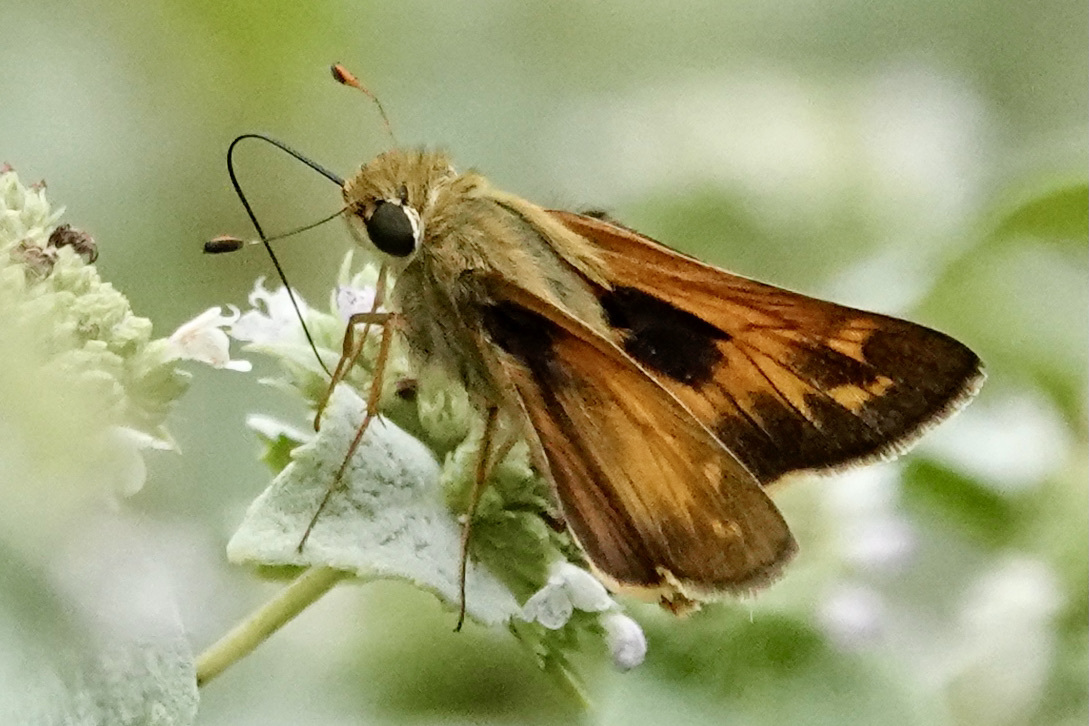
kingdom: Animalia
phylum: Arthropoda
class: Insecta
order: Lepidoptera
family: Hesperiidae
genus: Atalopedes
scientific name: Atalopedes
